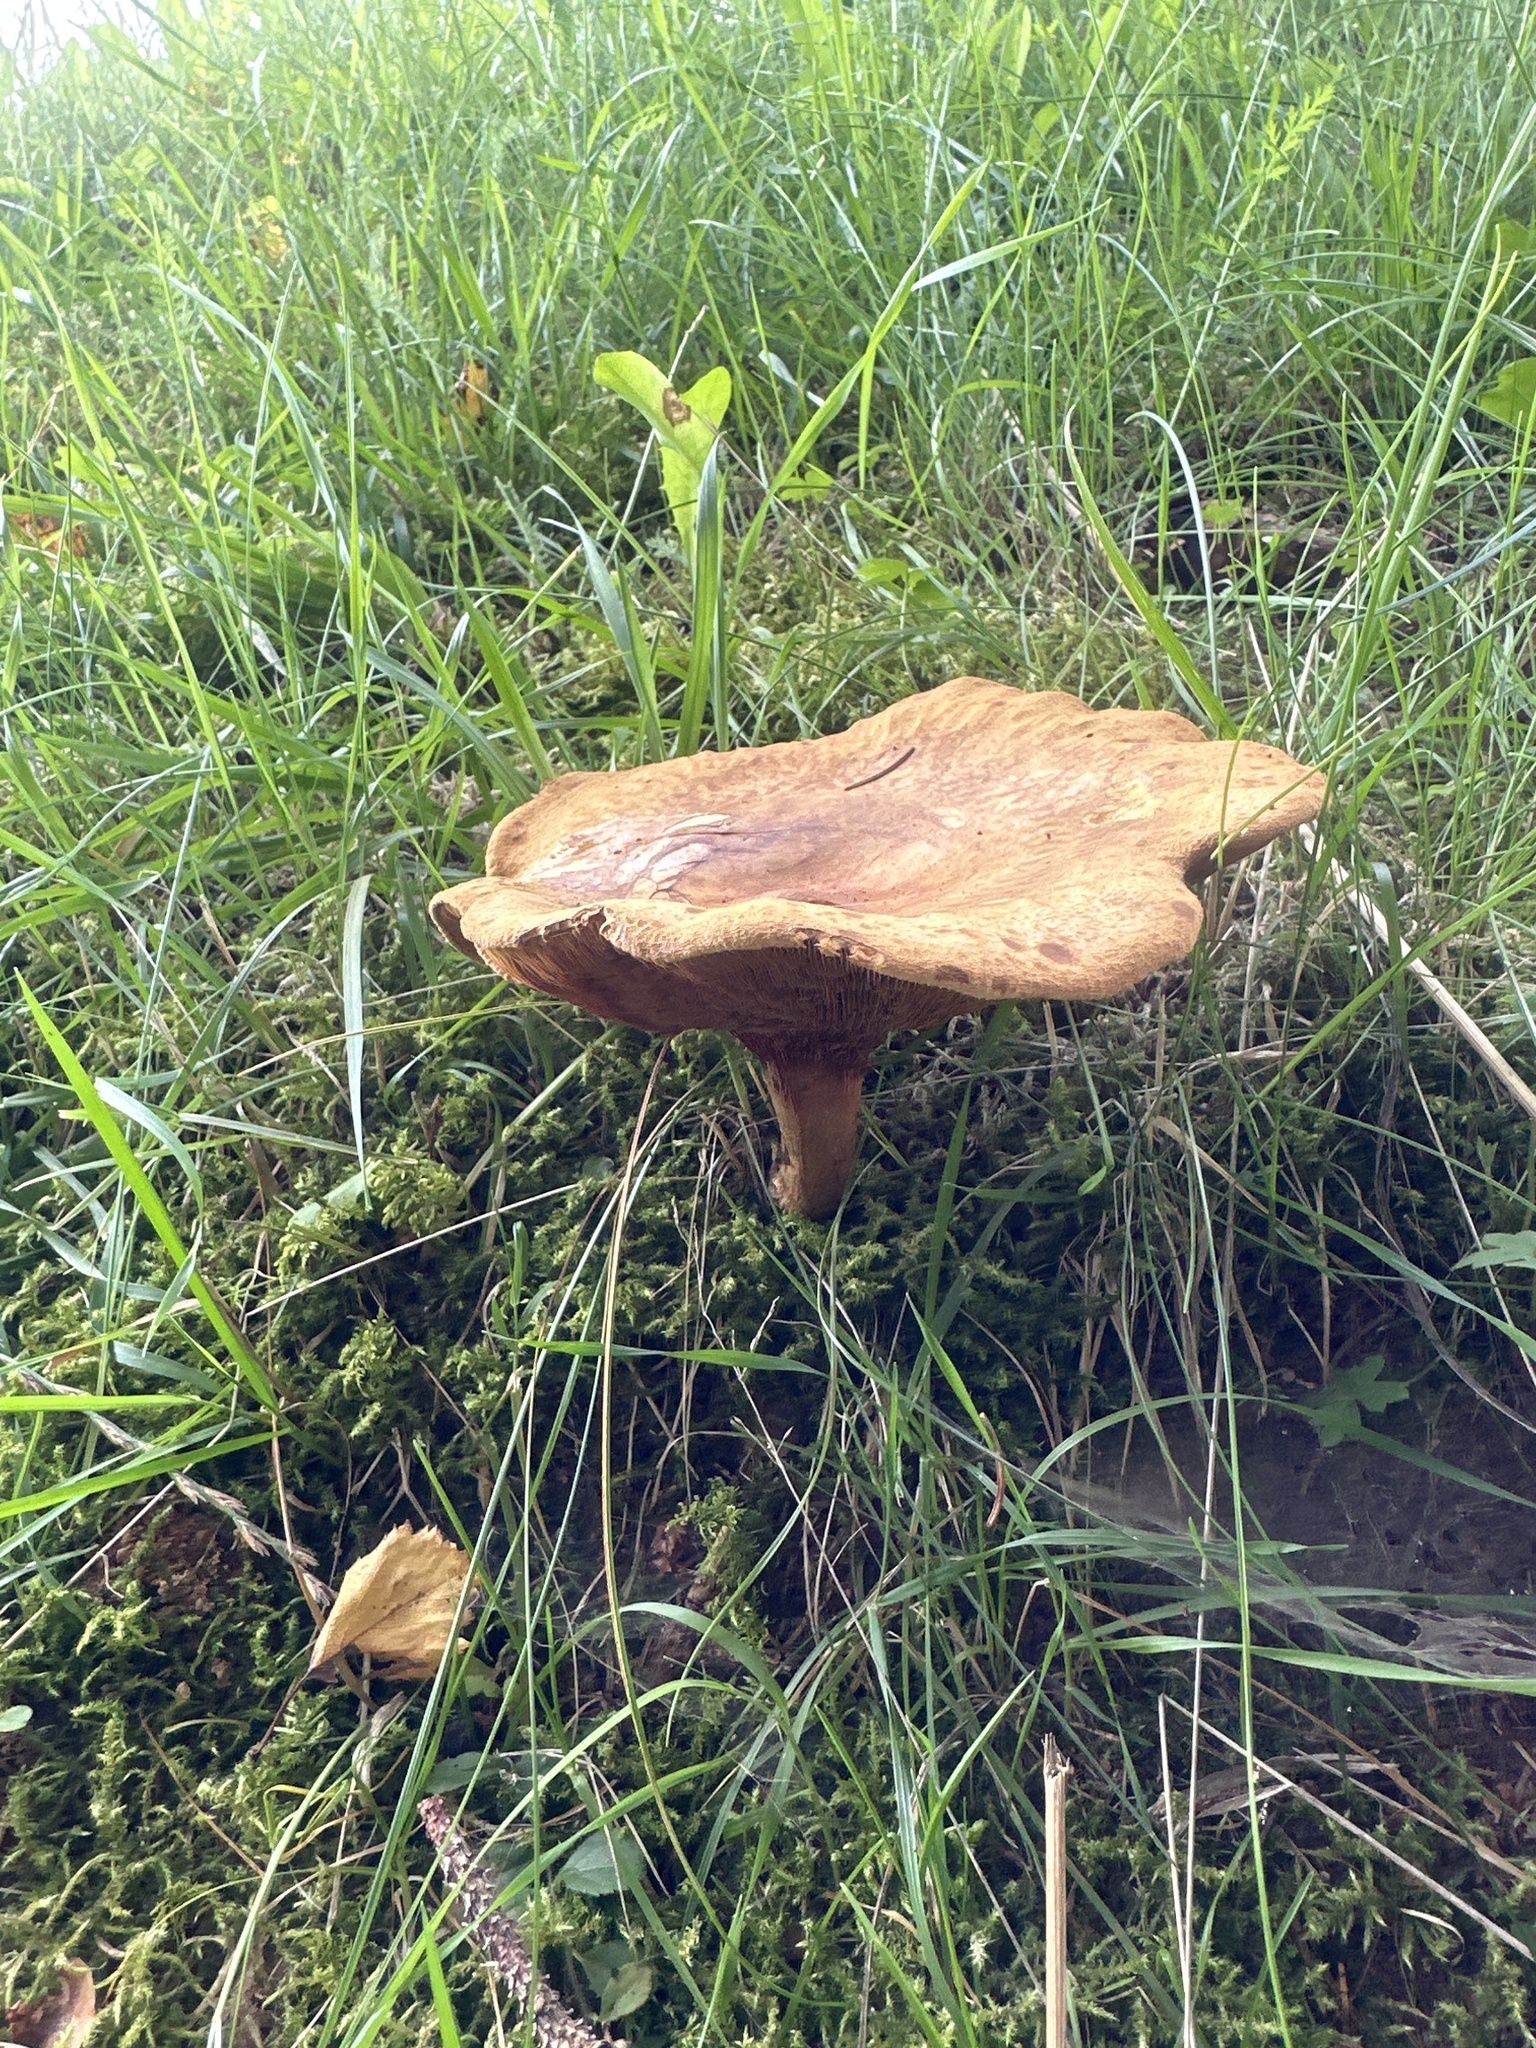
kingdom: Fungi
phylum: Basidiomycota
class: Agaricomycetes
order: Boletales
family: Paxillaceae
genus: Paxillus
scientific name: Paxillus involutus
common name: Brown roll rim
